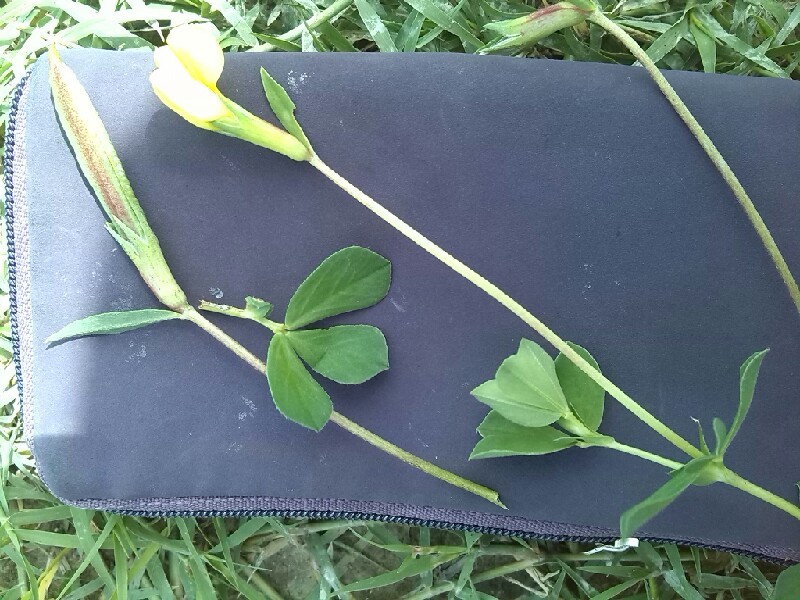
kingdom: Plantae
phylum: Tracheophyta
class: Magnoliopsida
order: Fabales
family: Fabaceae
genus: Lotus
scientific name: Lotus maritimus
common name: Dragon's-teeth
